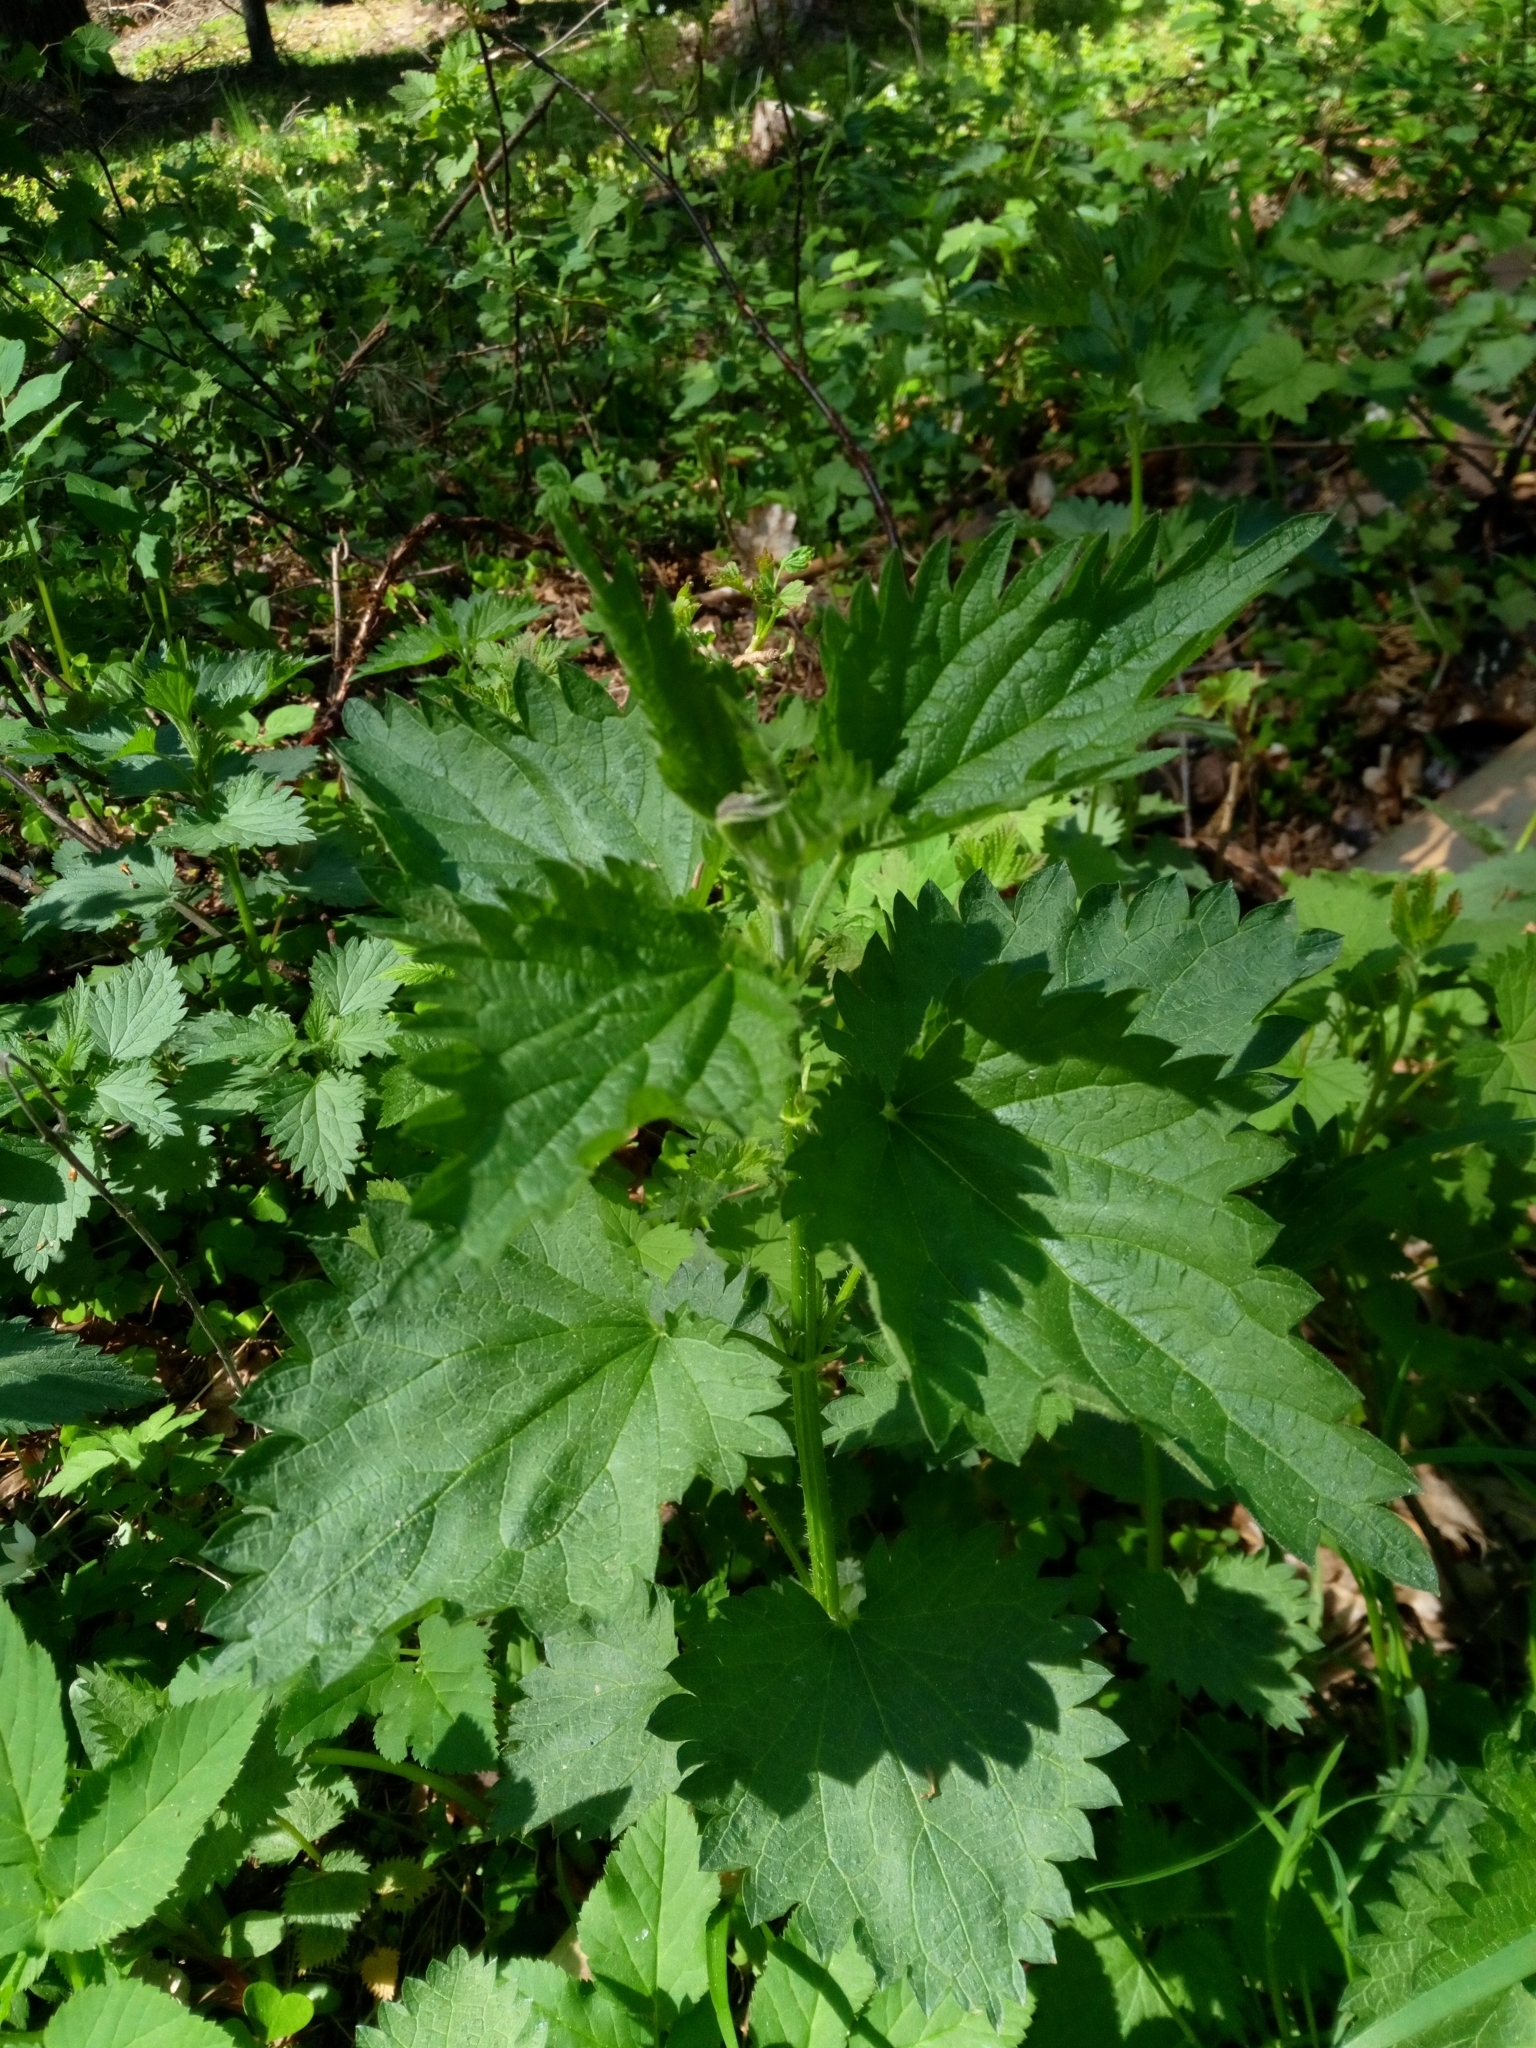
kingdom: Plantae
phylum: Tracheophyta
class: Magnoliopsida
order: Rosales
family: Urticaceae
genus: Urtica
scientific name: Urtica dioica
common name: Common nettle
